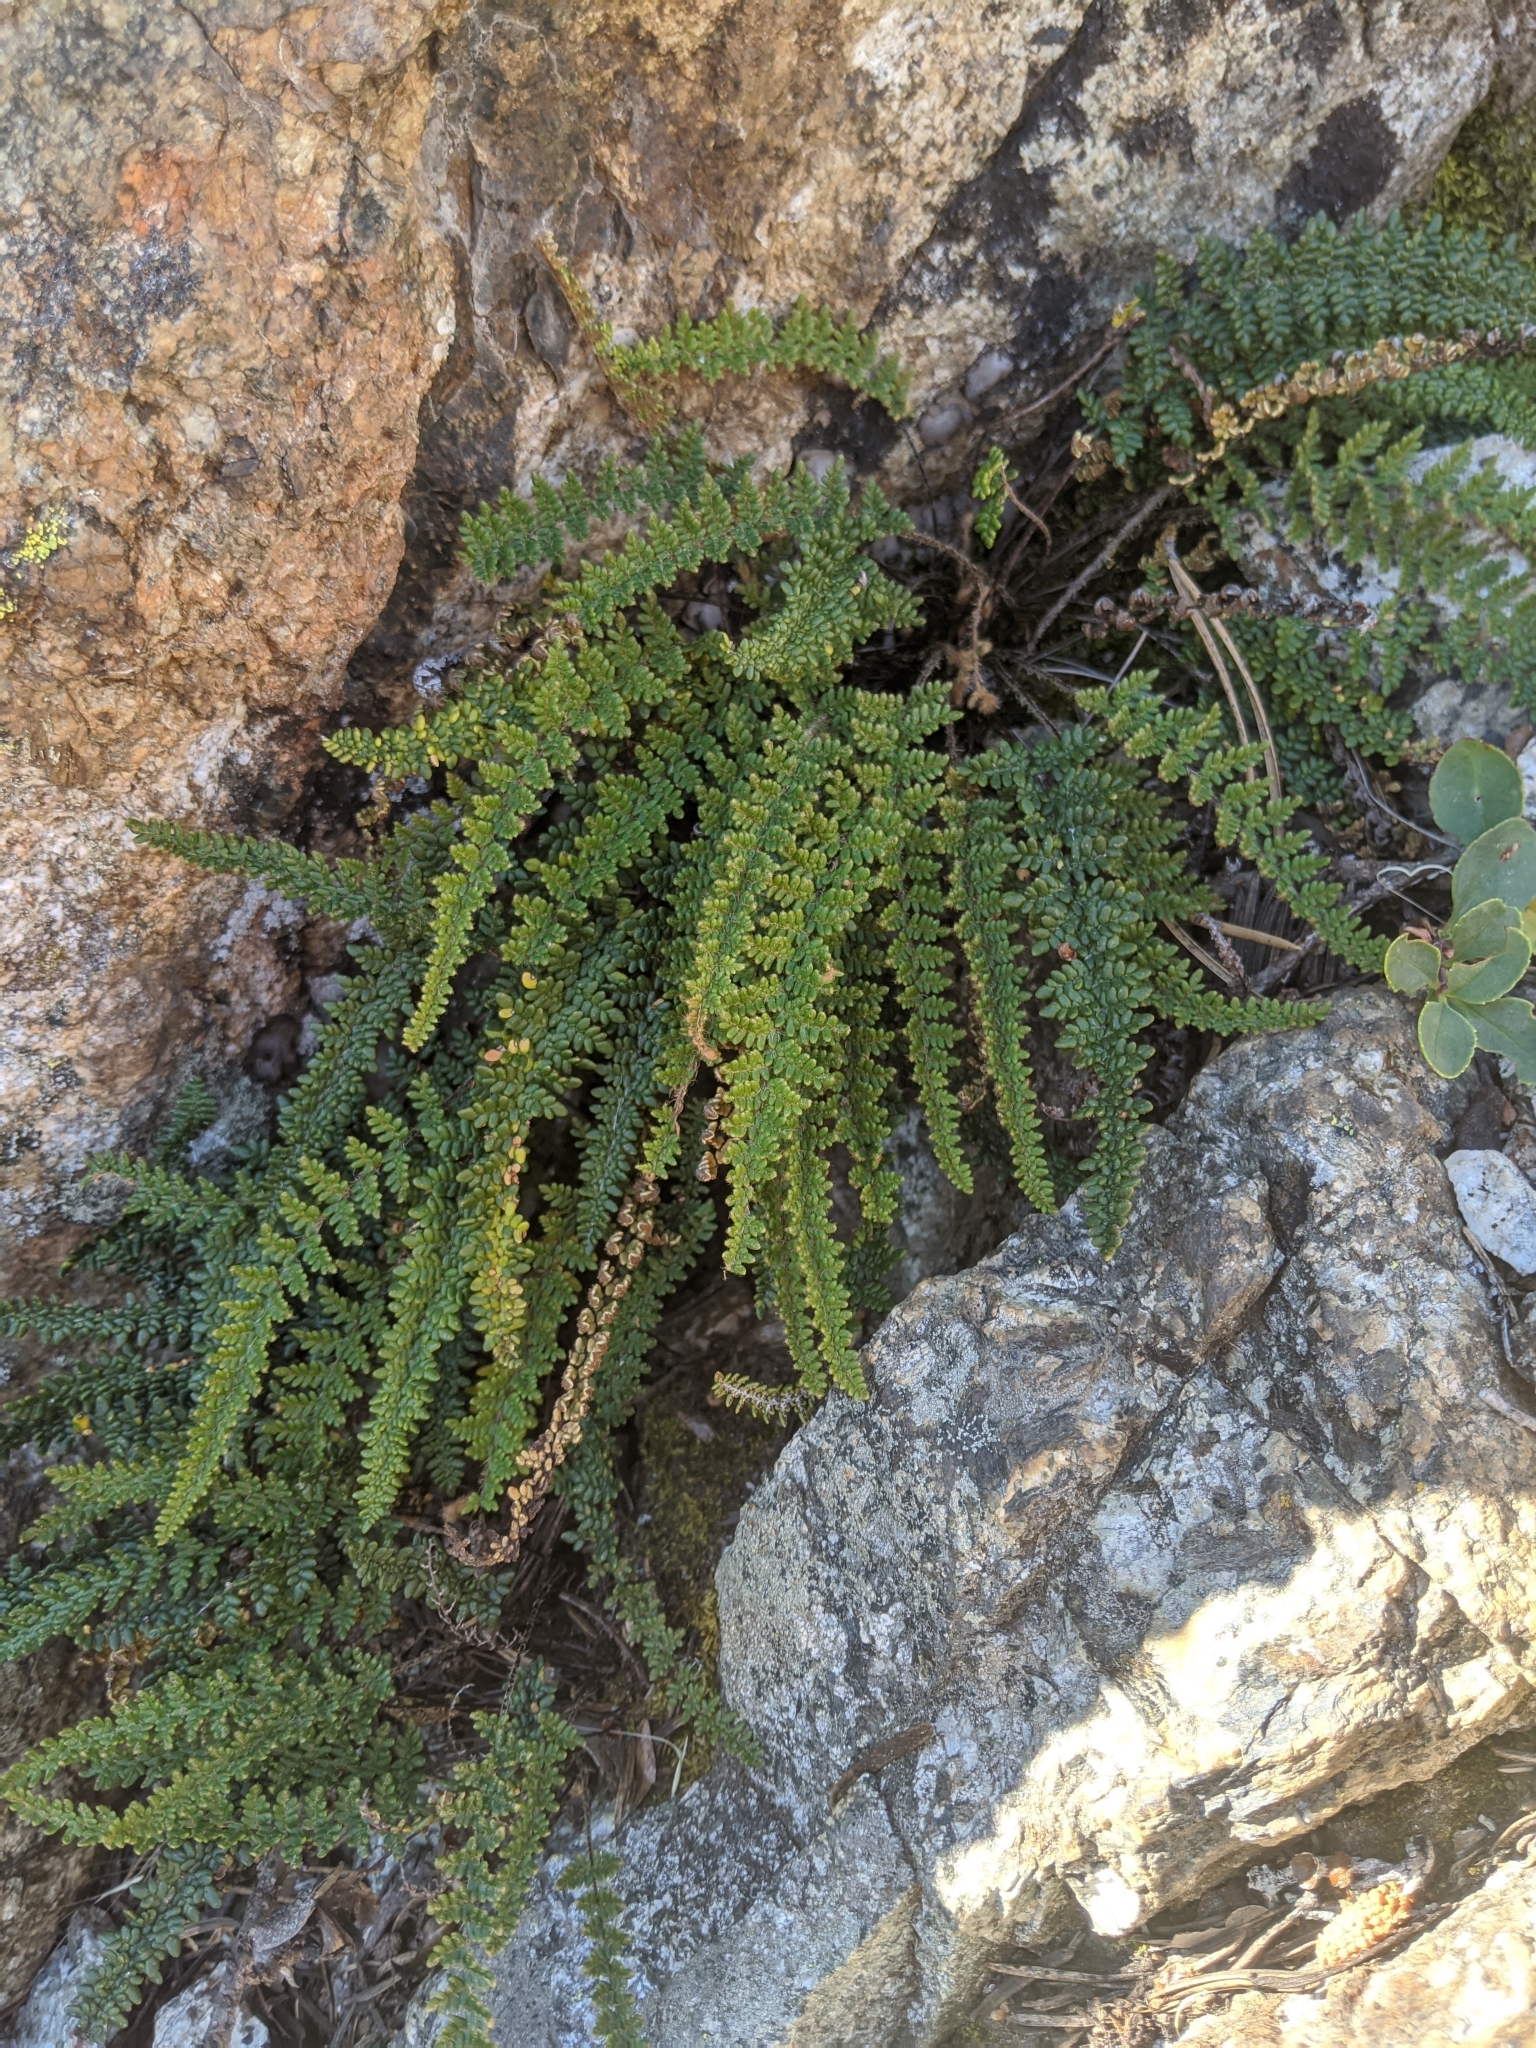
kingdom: Plantae
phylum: Tracheophyta
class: Polypodiopsida
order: Polypodiales
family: Pteridaceae
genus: Myriopteris
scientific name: Myriopteris gracillima
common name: Lace fern
